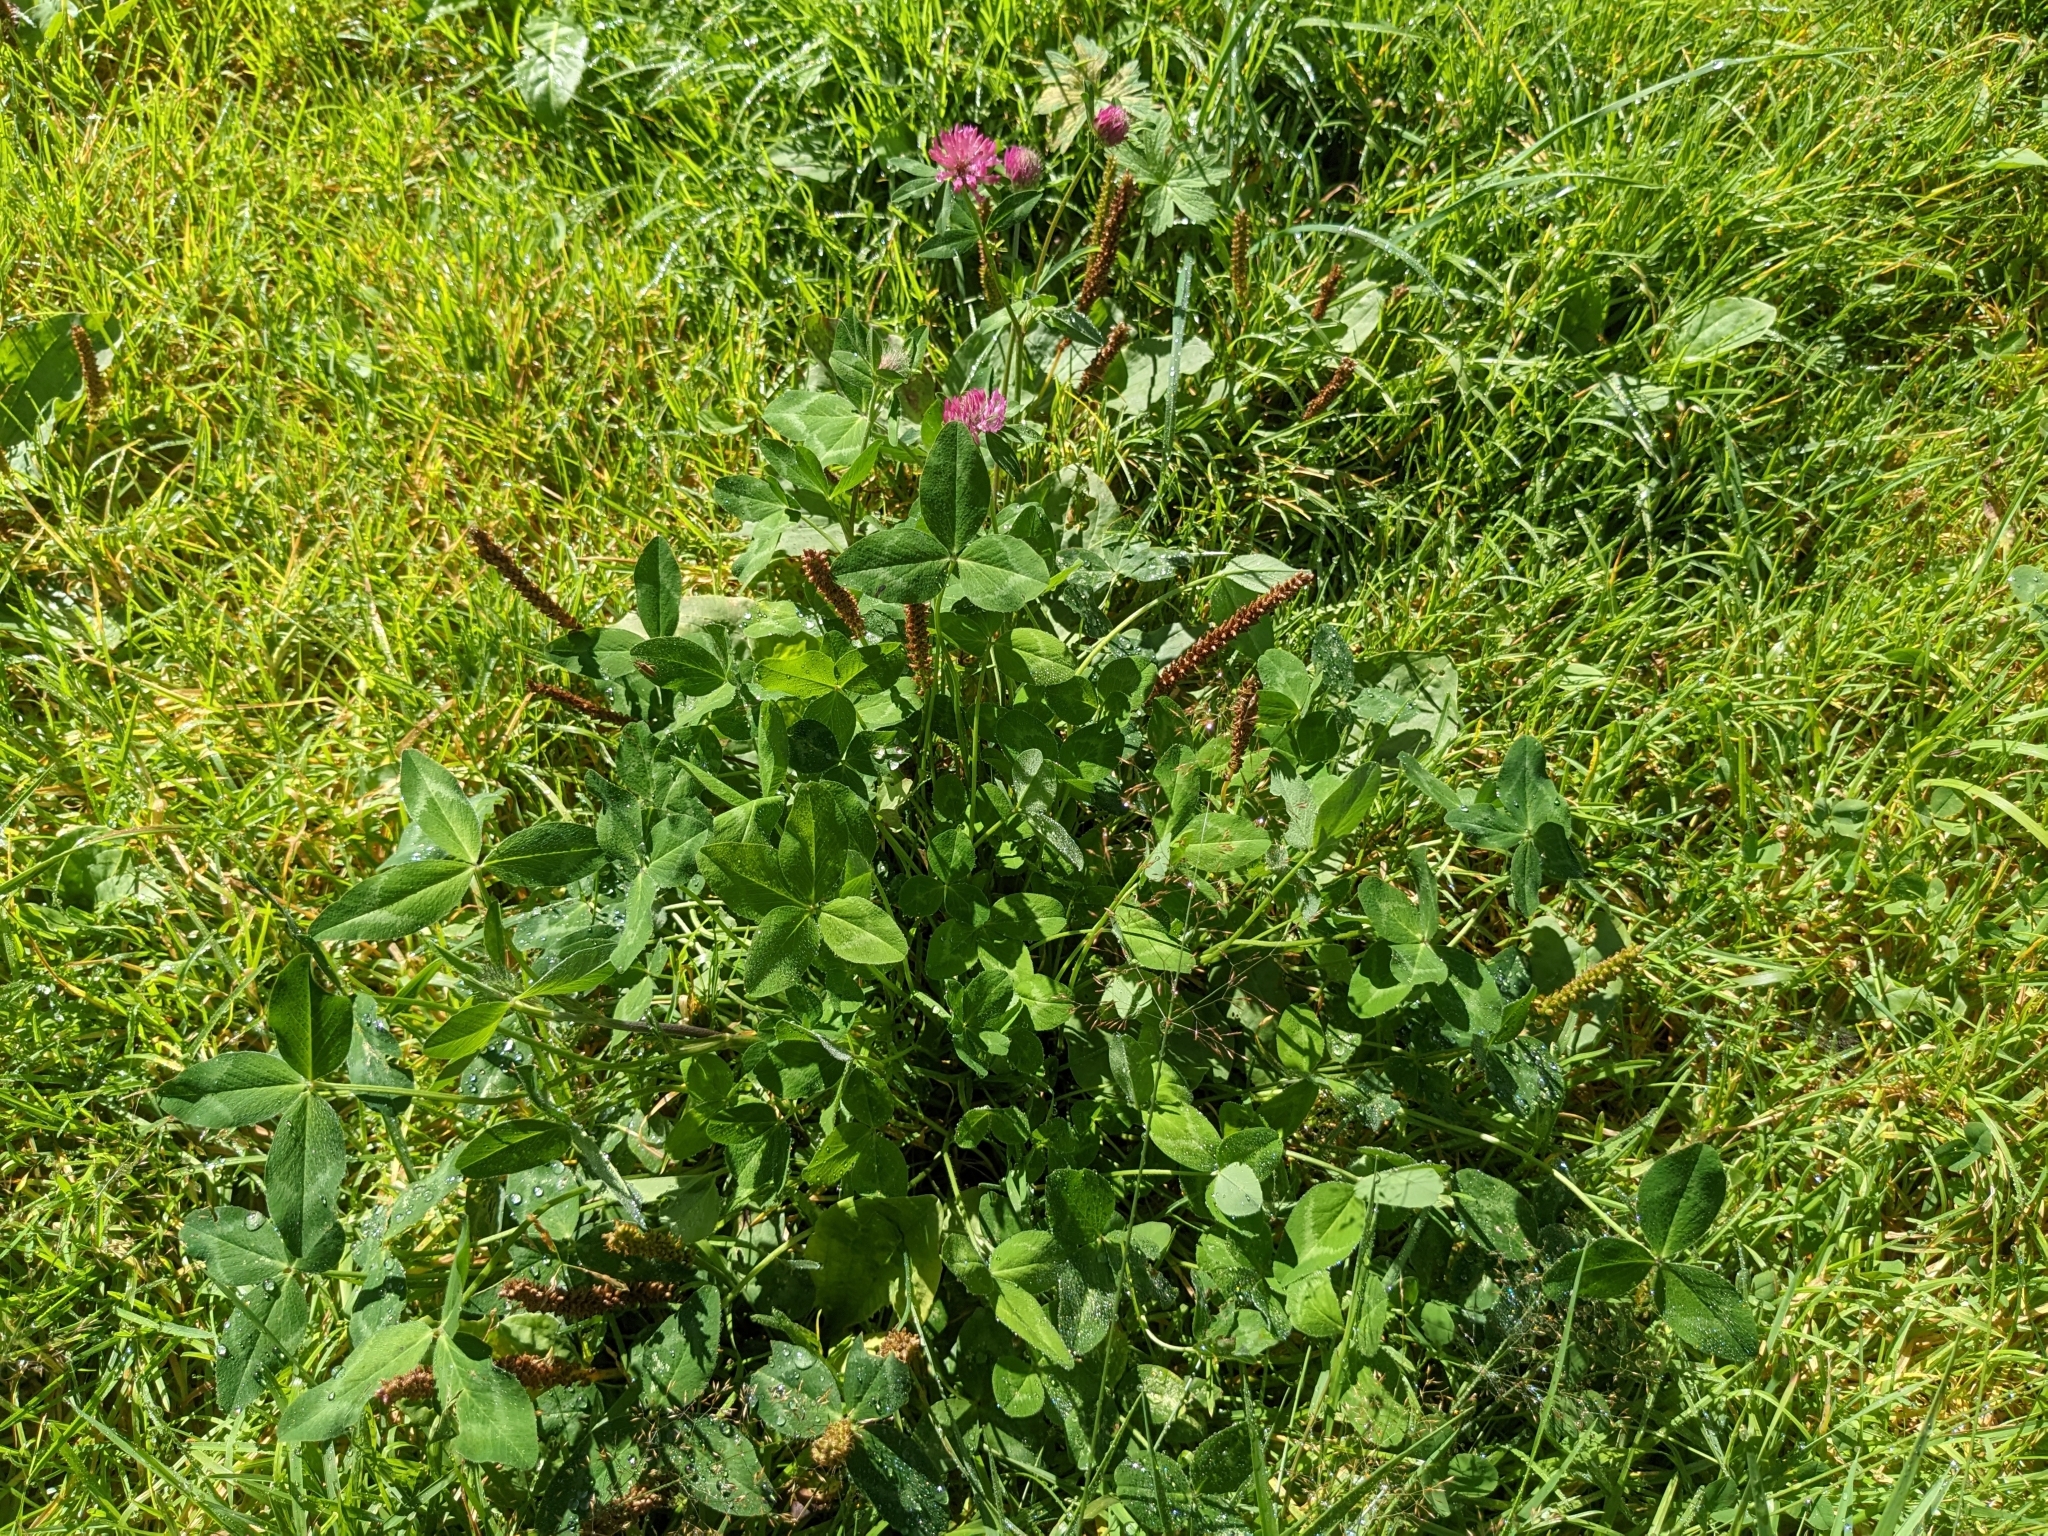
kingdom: Plantae
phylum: Tracheophyta
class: Magnoliopsida
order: Fabales
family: Fabaceae
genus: Trifolium
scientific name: Trifolium pratense
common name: Red clover
